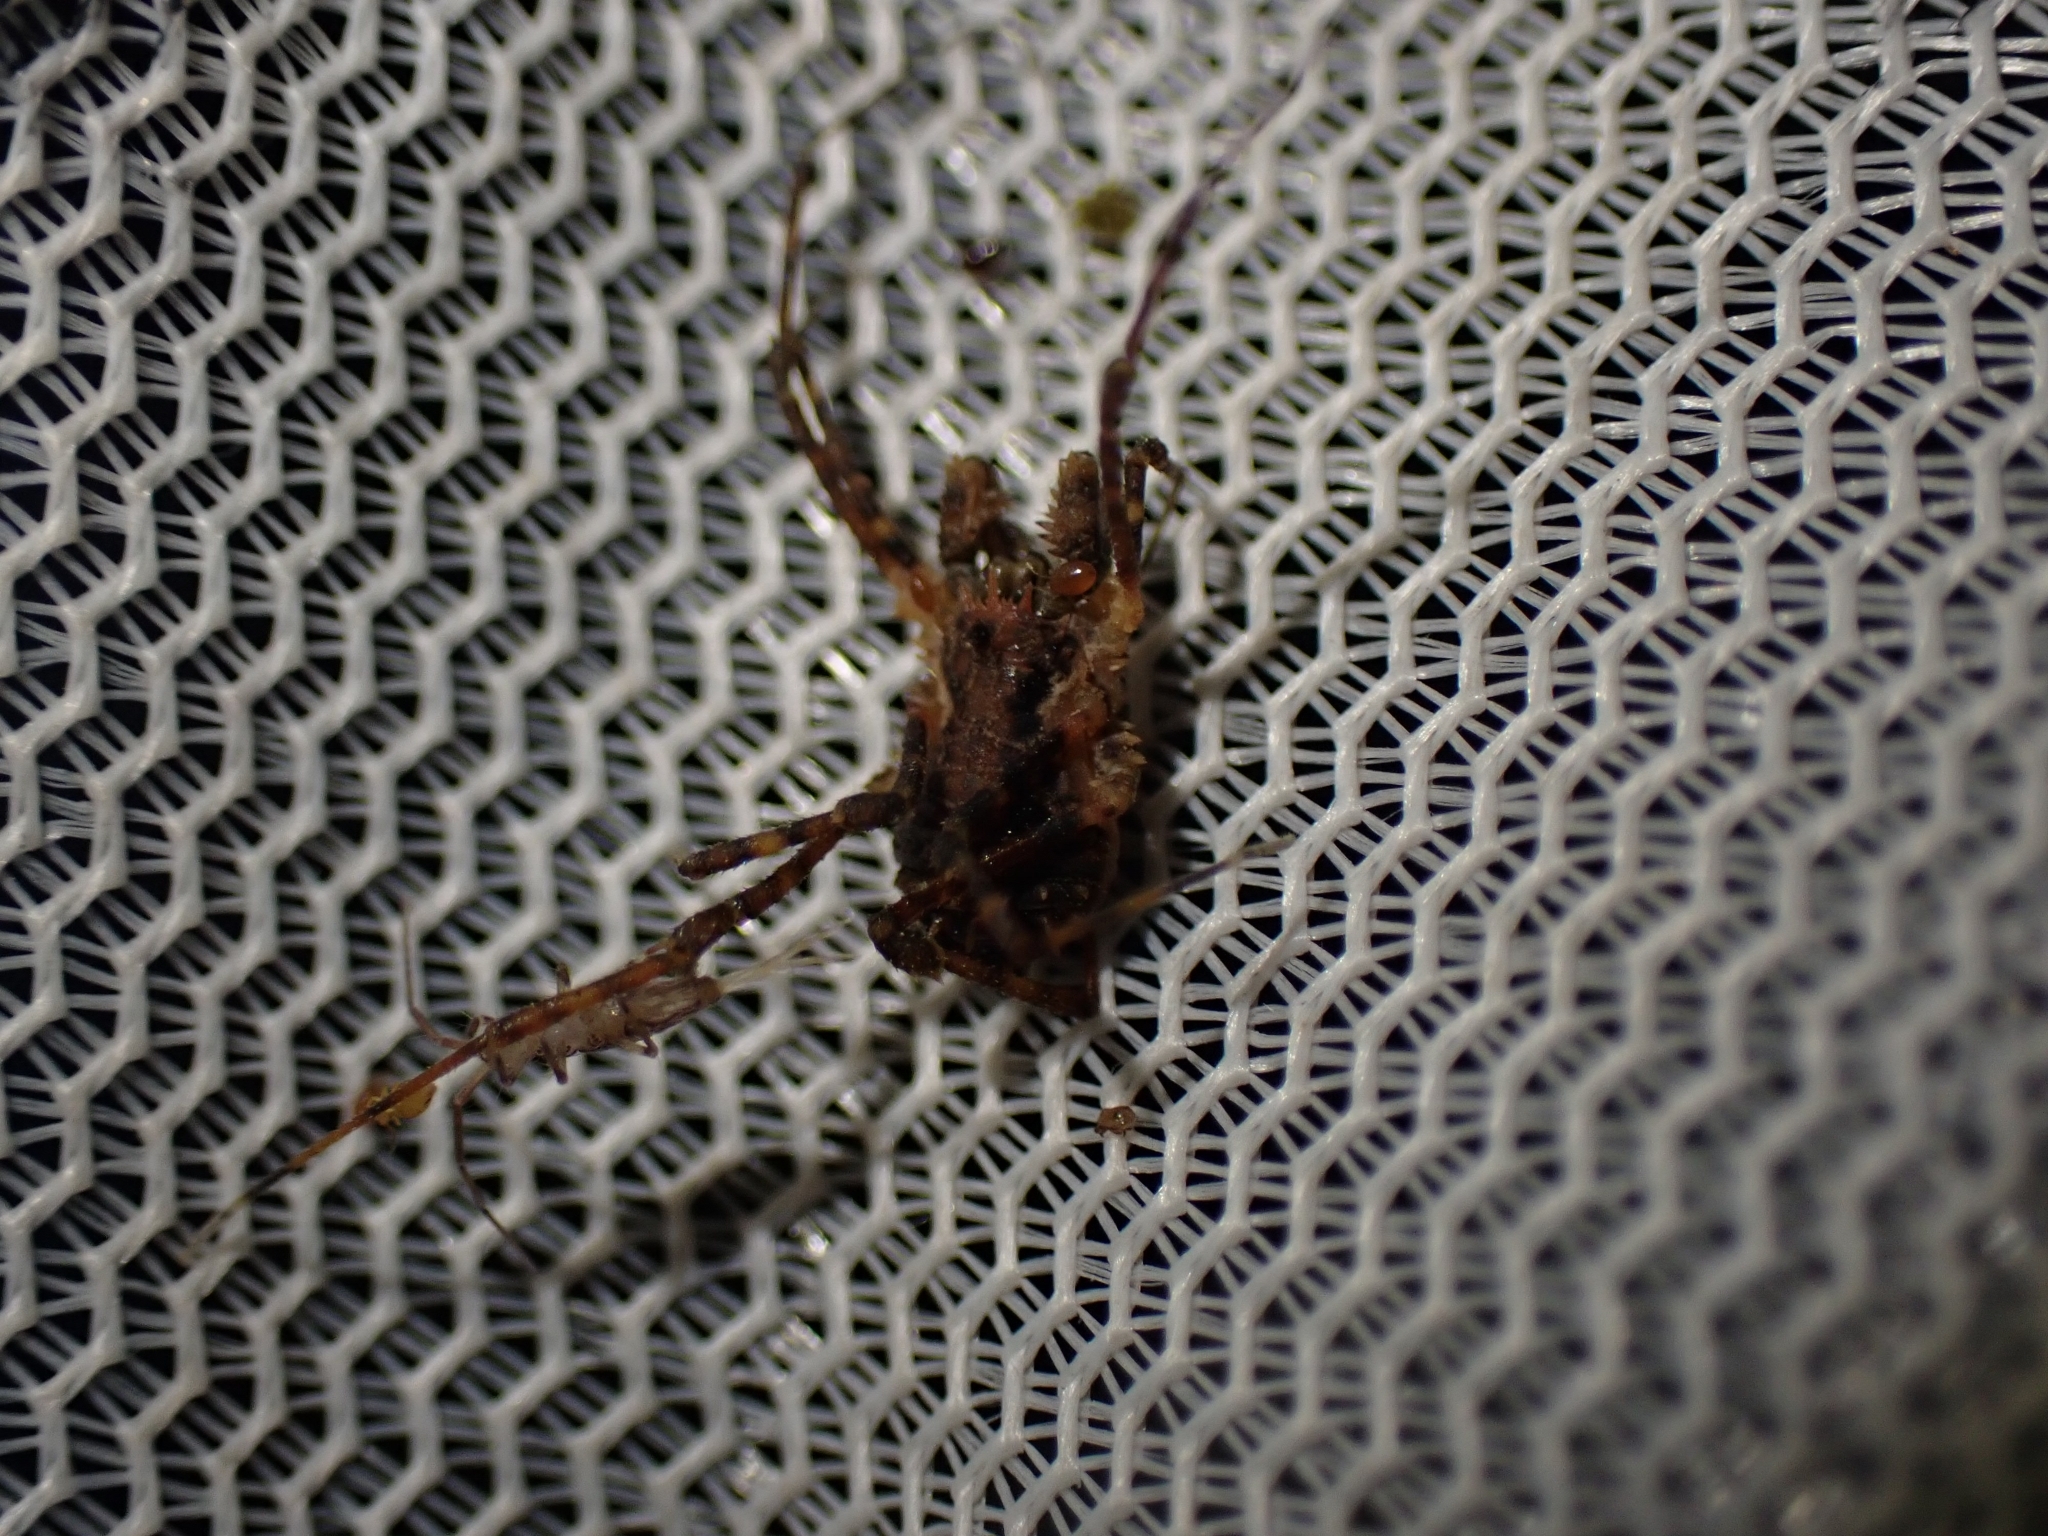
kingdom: Animalia
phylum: Arthropoda
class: Arachnida
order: Opiliones
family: Triaenonychidae
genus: Algidia
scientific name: Algidia nigriflava
